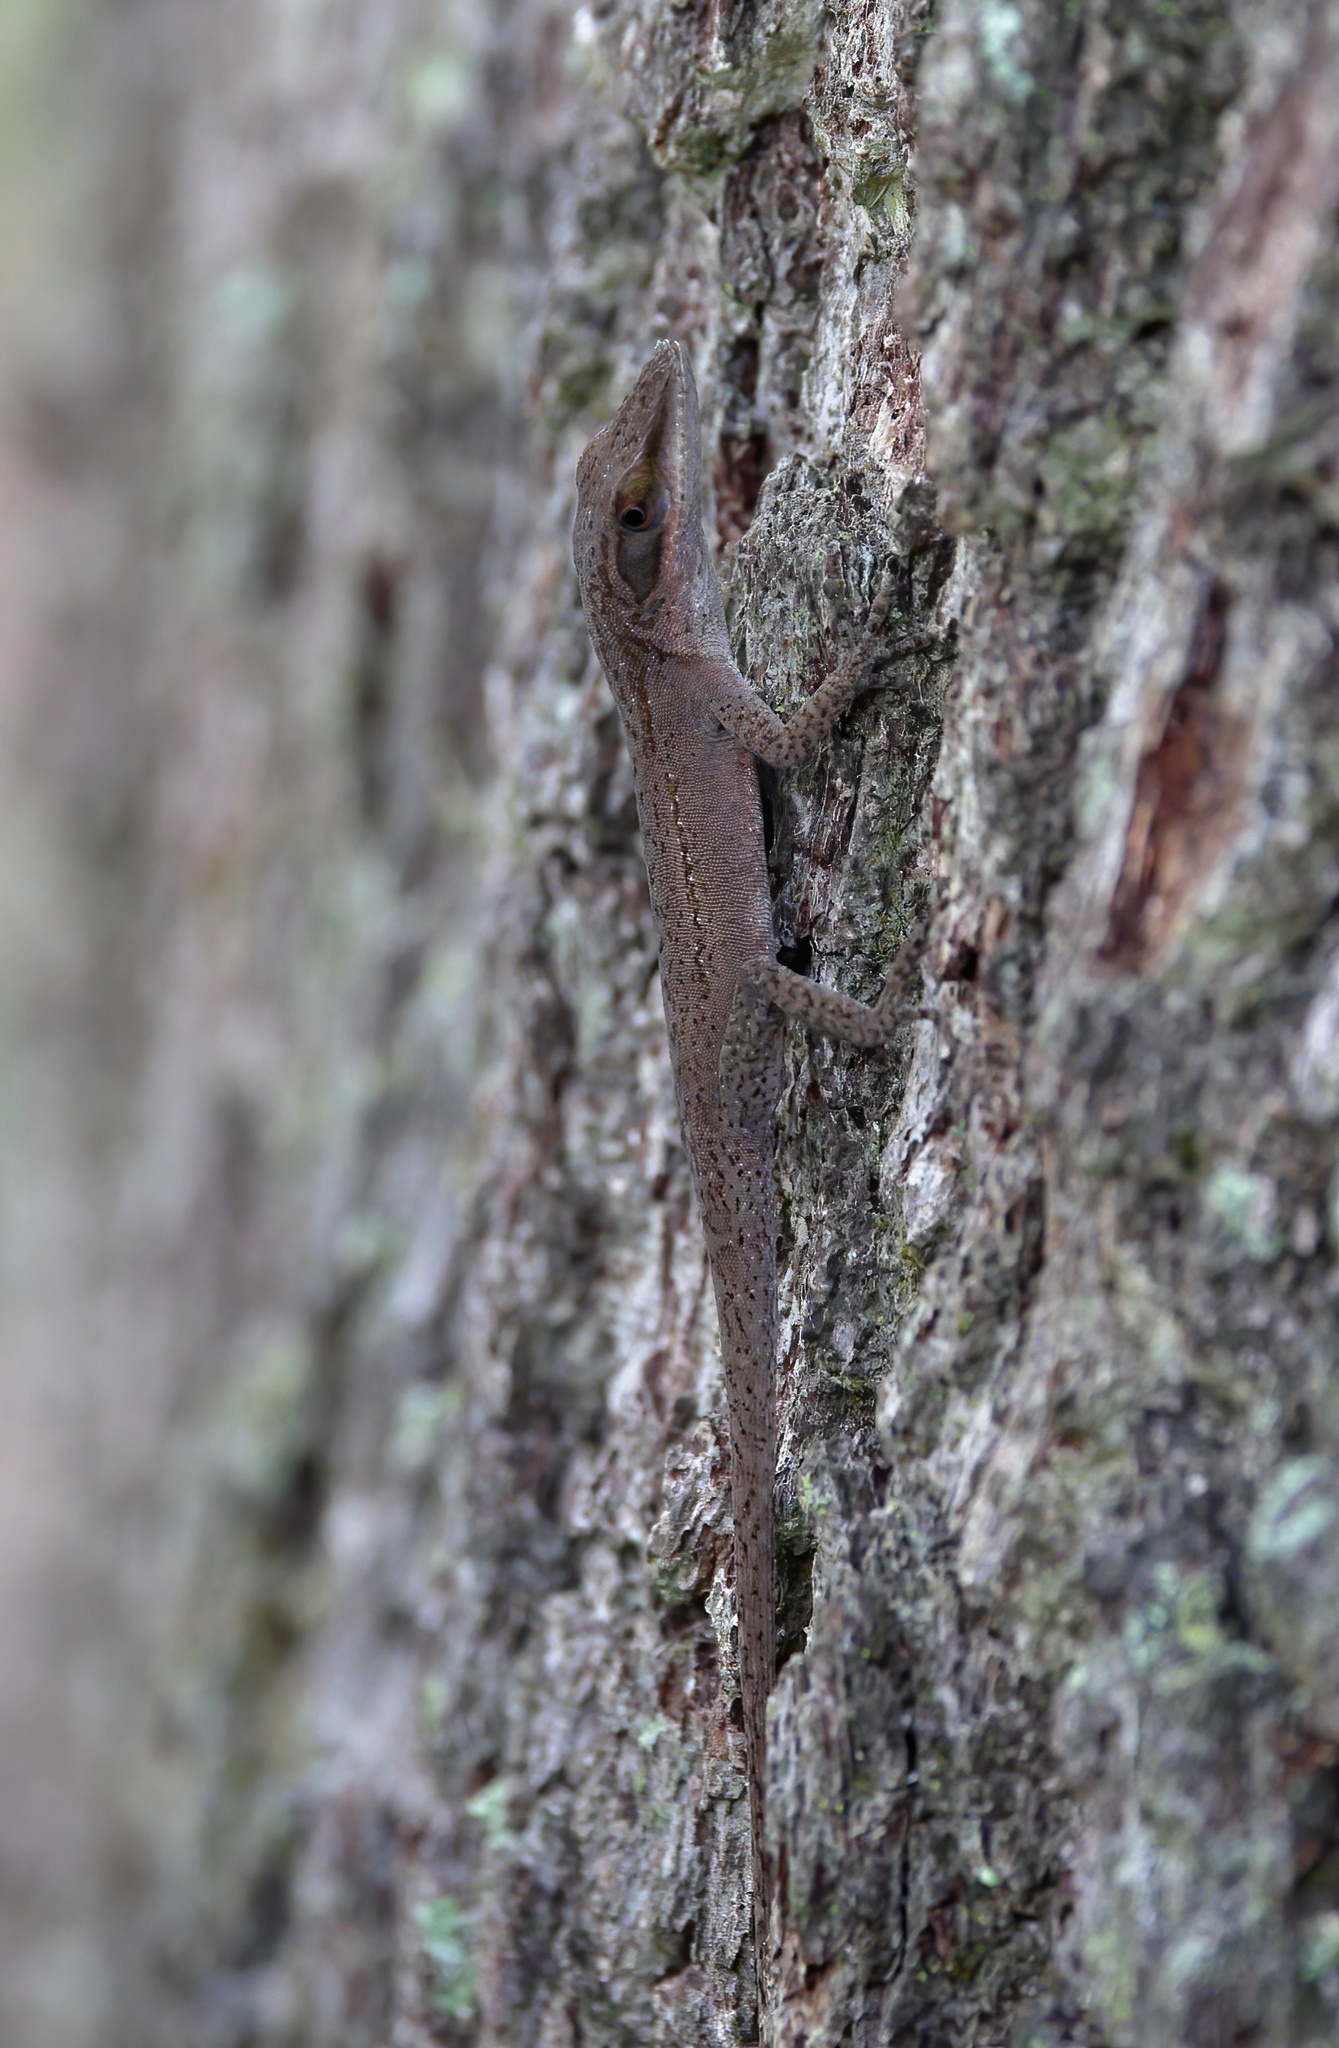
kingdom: Animalia
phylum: Chordata
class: Squamata
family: Dactyloidae
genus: Anolis
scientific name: Anolis carolinensis
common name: Green anole
